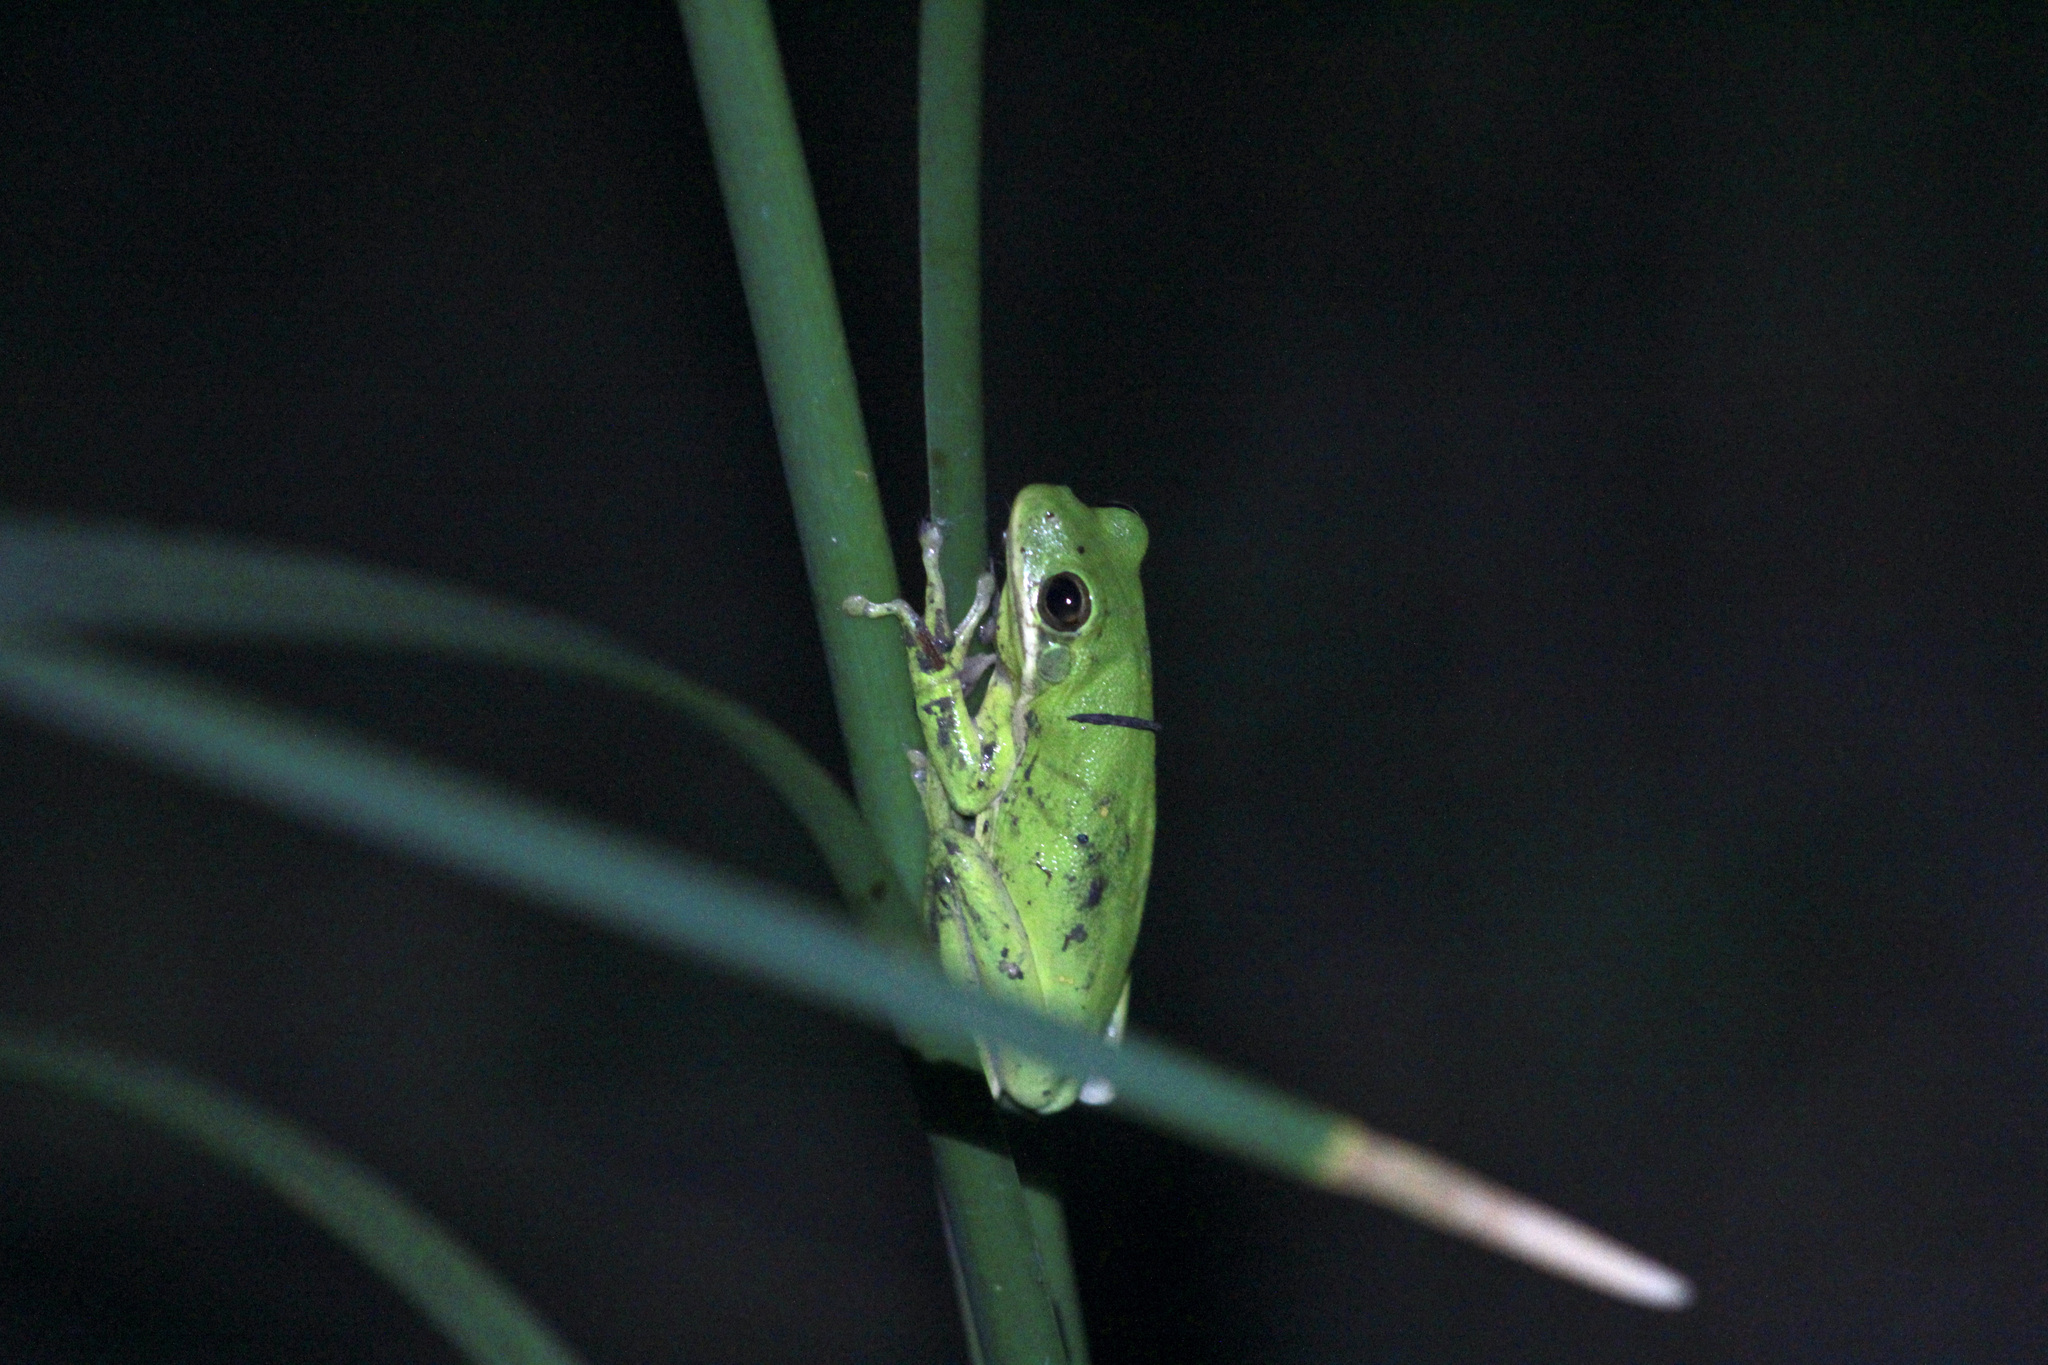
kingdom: Animalia
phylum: Chordata
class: Amphibia
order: Anura
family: Hylidae
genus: Dryophytes
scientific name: Dryophytes cinereus
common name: Green treefrog
